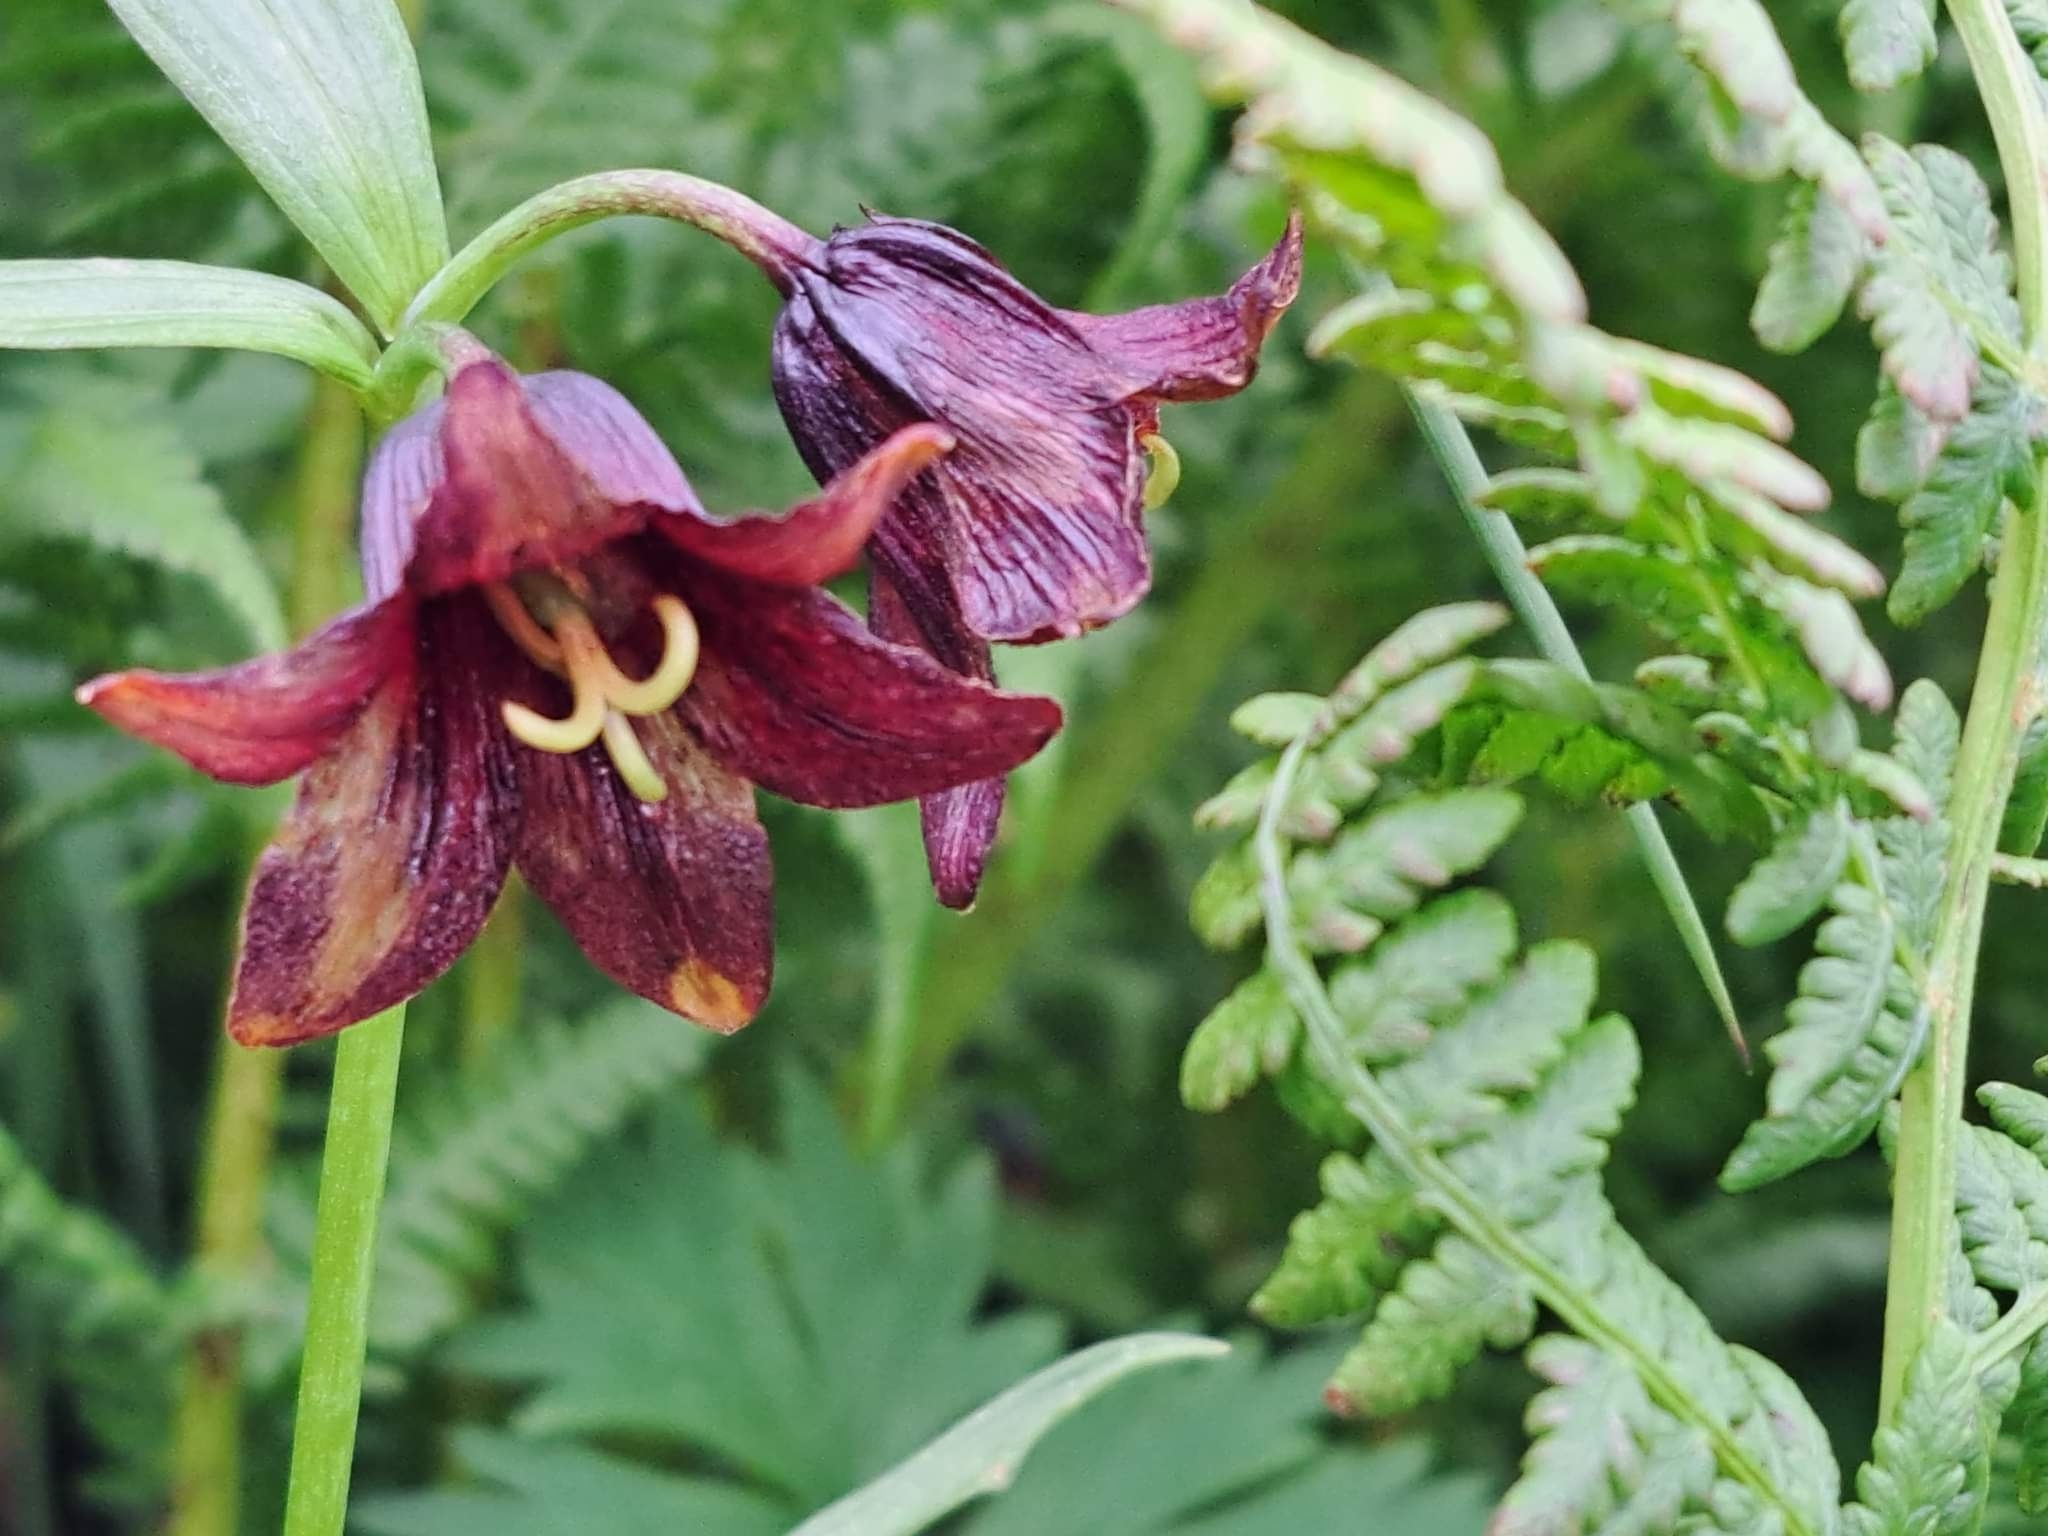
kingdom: Plantae
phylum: Tracheophyta
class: Liliopsida
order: Liliales
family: Liliaceae
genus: Fritillaria
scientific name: Fritillaria camschatcensis
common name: Kamchatka fritillary
